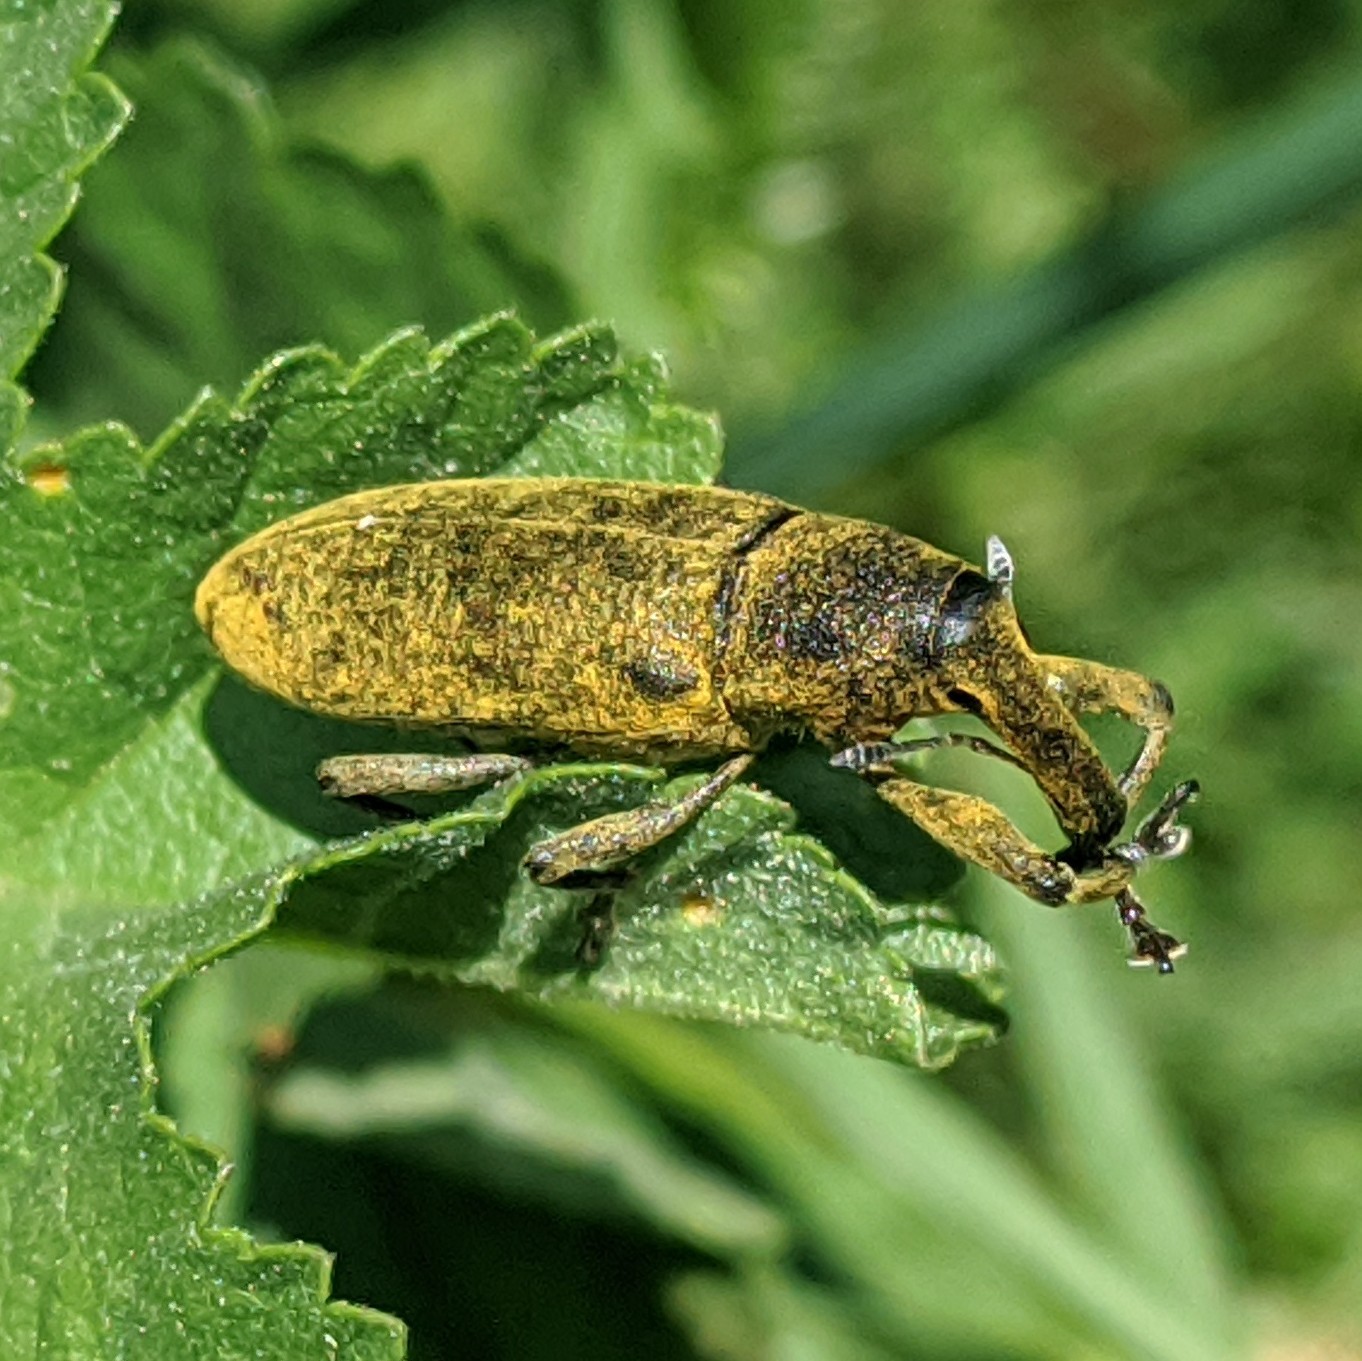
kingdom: Animalia
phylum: Arthropoda
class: Insecta
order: Coleoptera
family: Curculionidae
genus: Lixus
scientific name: Lixus pulverulentus
